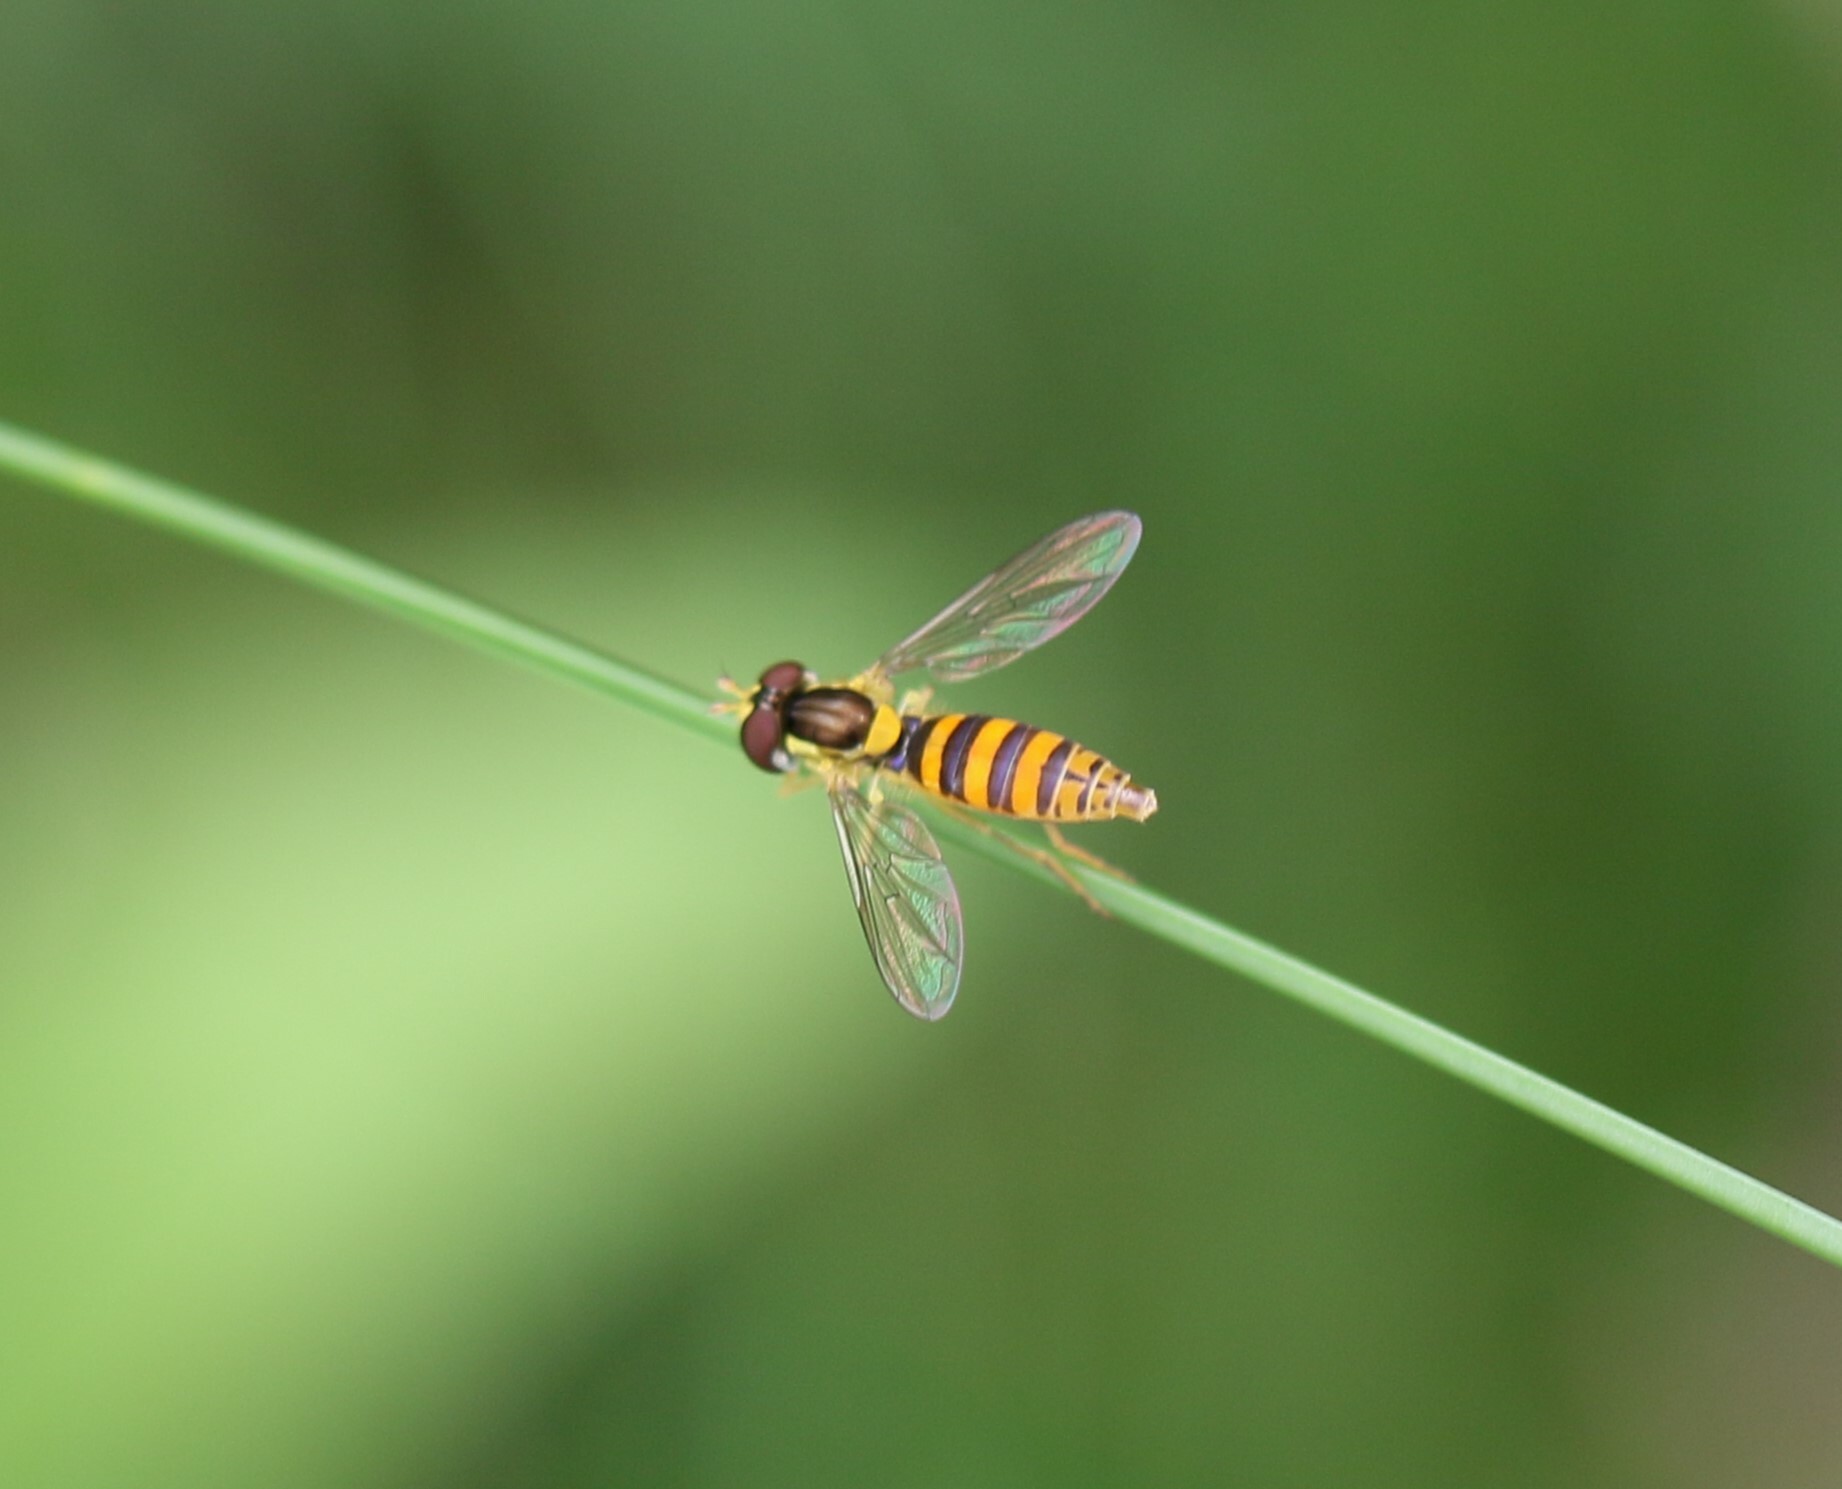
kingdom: Animalia
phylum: Arthropoda
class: Insecta
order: Diptera
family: Syrphidae
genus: Sphaerophoria
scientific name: Sphaerophoria
